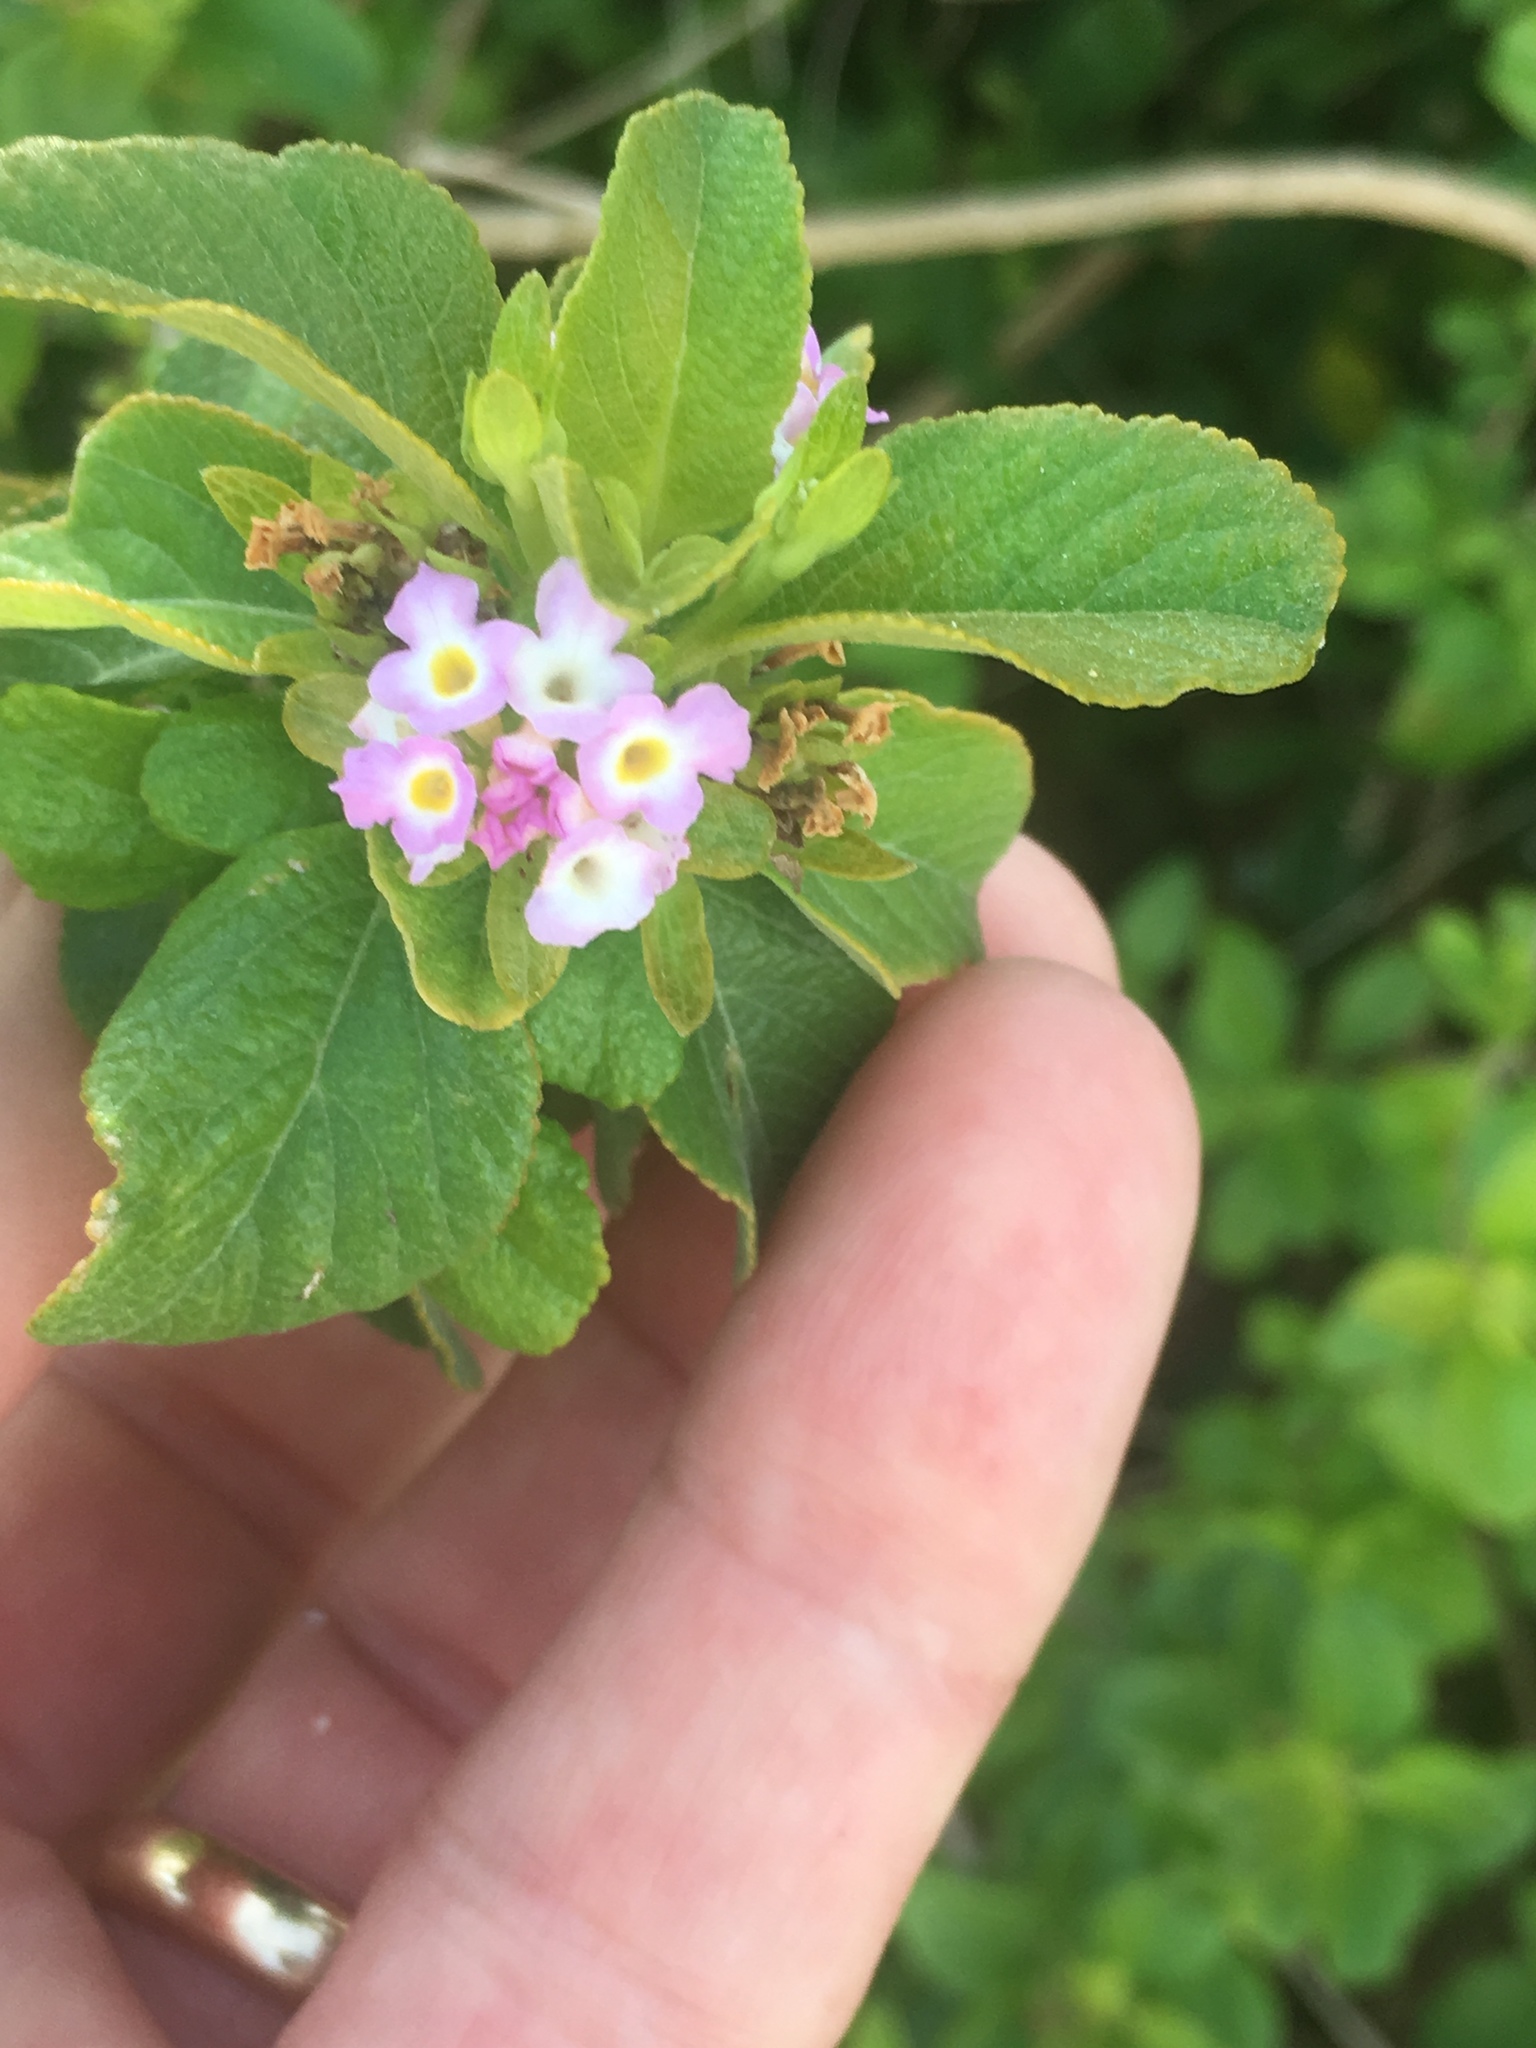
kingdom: Plantae
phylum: Tracheophyta
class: Magnoliopsida
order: Lamiales
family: Verbenaceae
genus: Lantana
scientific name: Lantana camara
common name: Lantana
